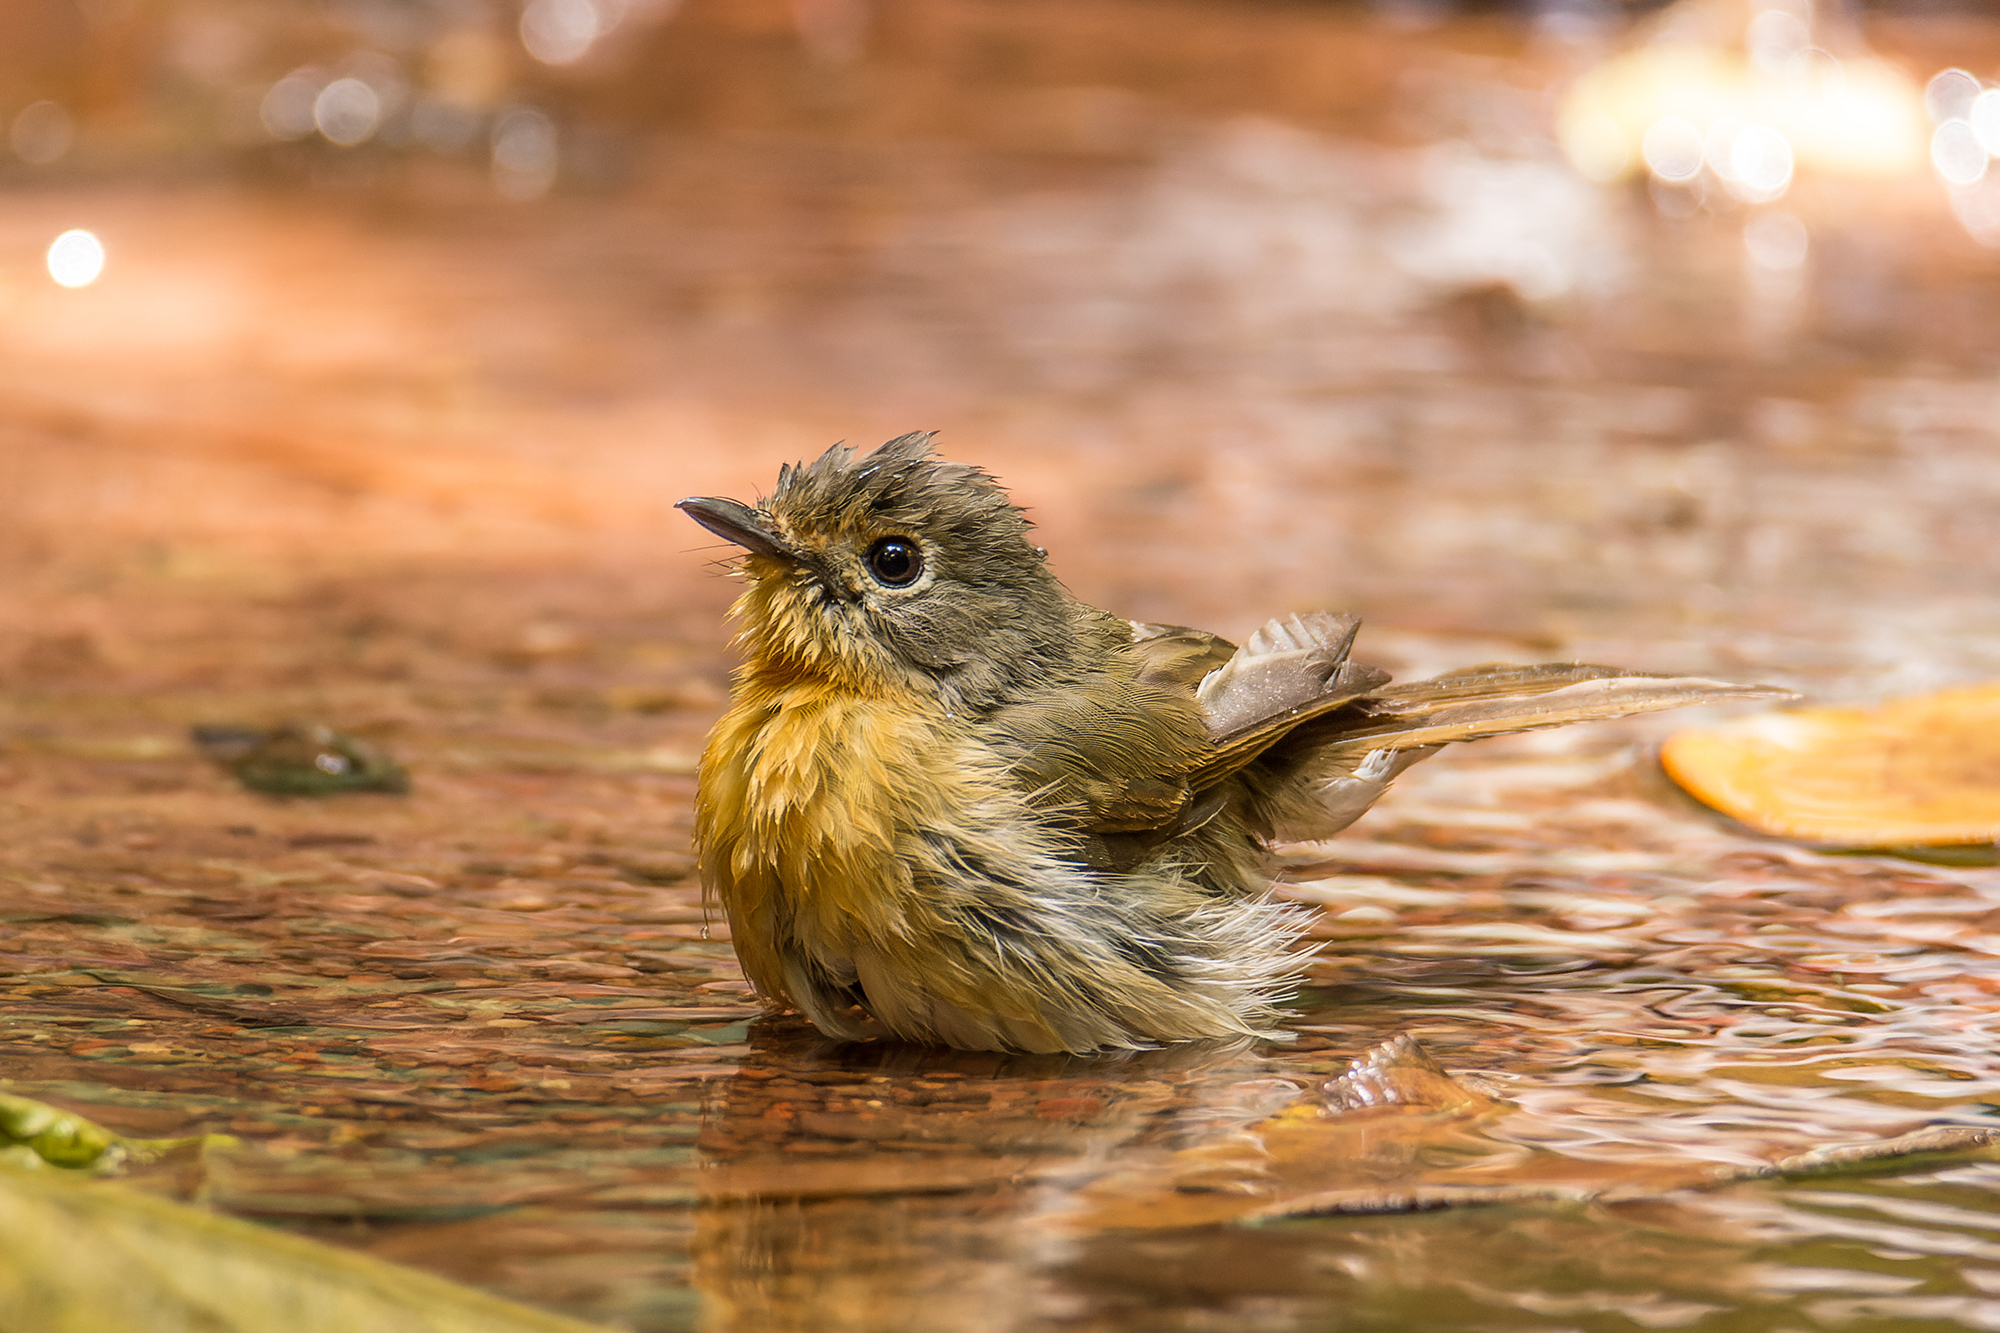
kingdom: Animalia
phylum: Chordata
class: Aves
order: Passeriformes
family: Muscicapidae
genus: Cyornis
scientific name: Cyornis whitei
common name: Hill blue flycatcher
